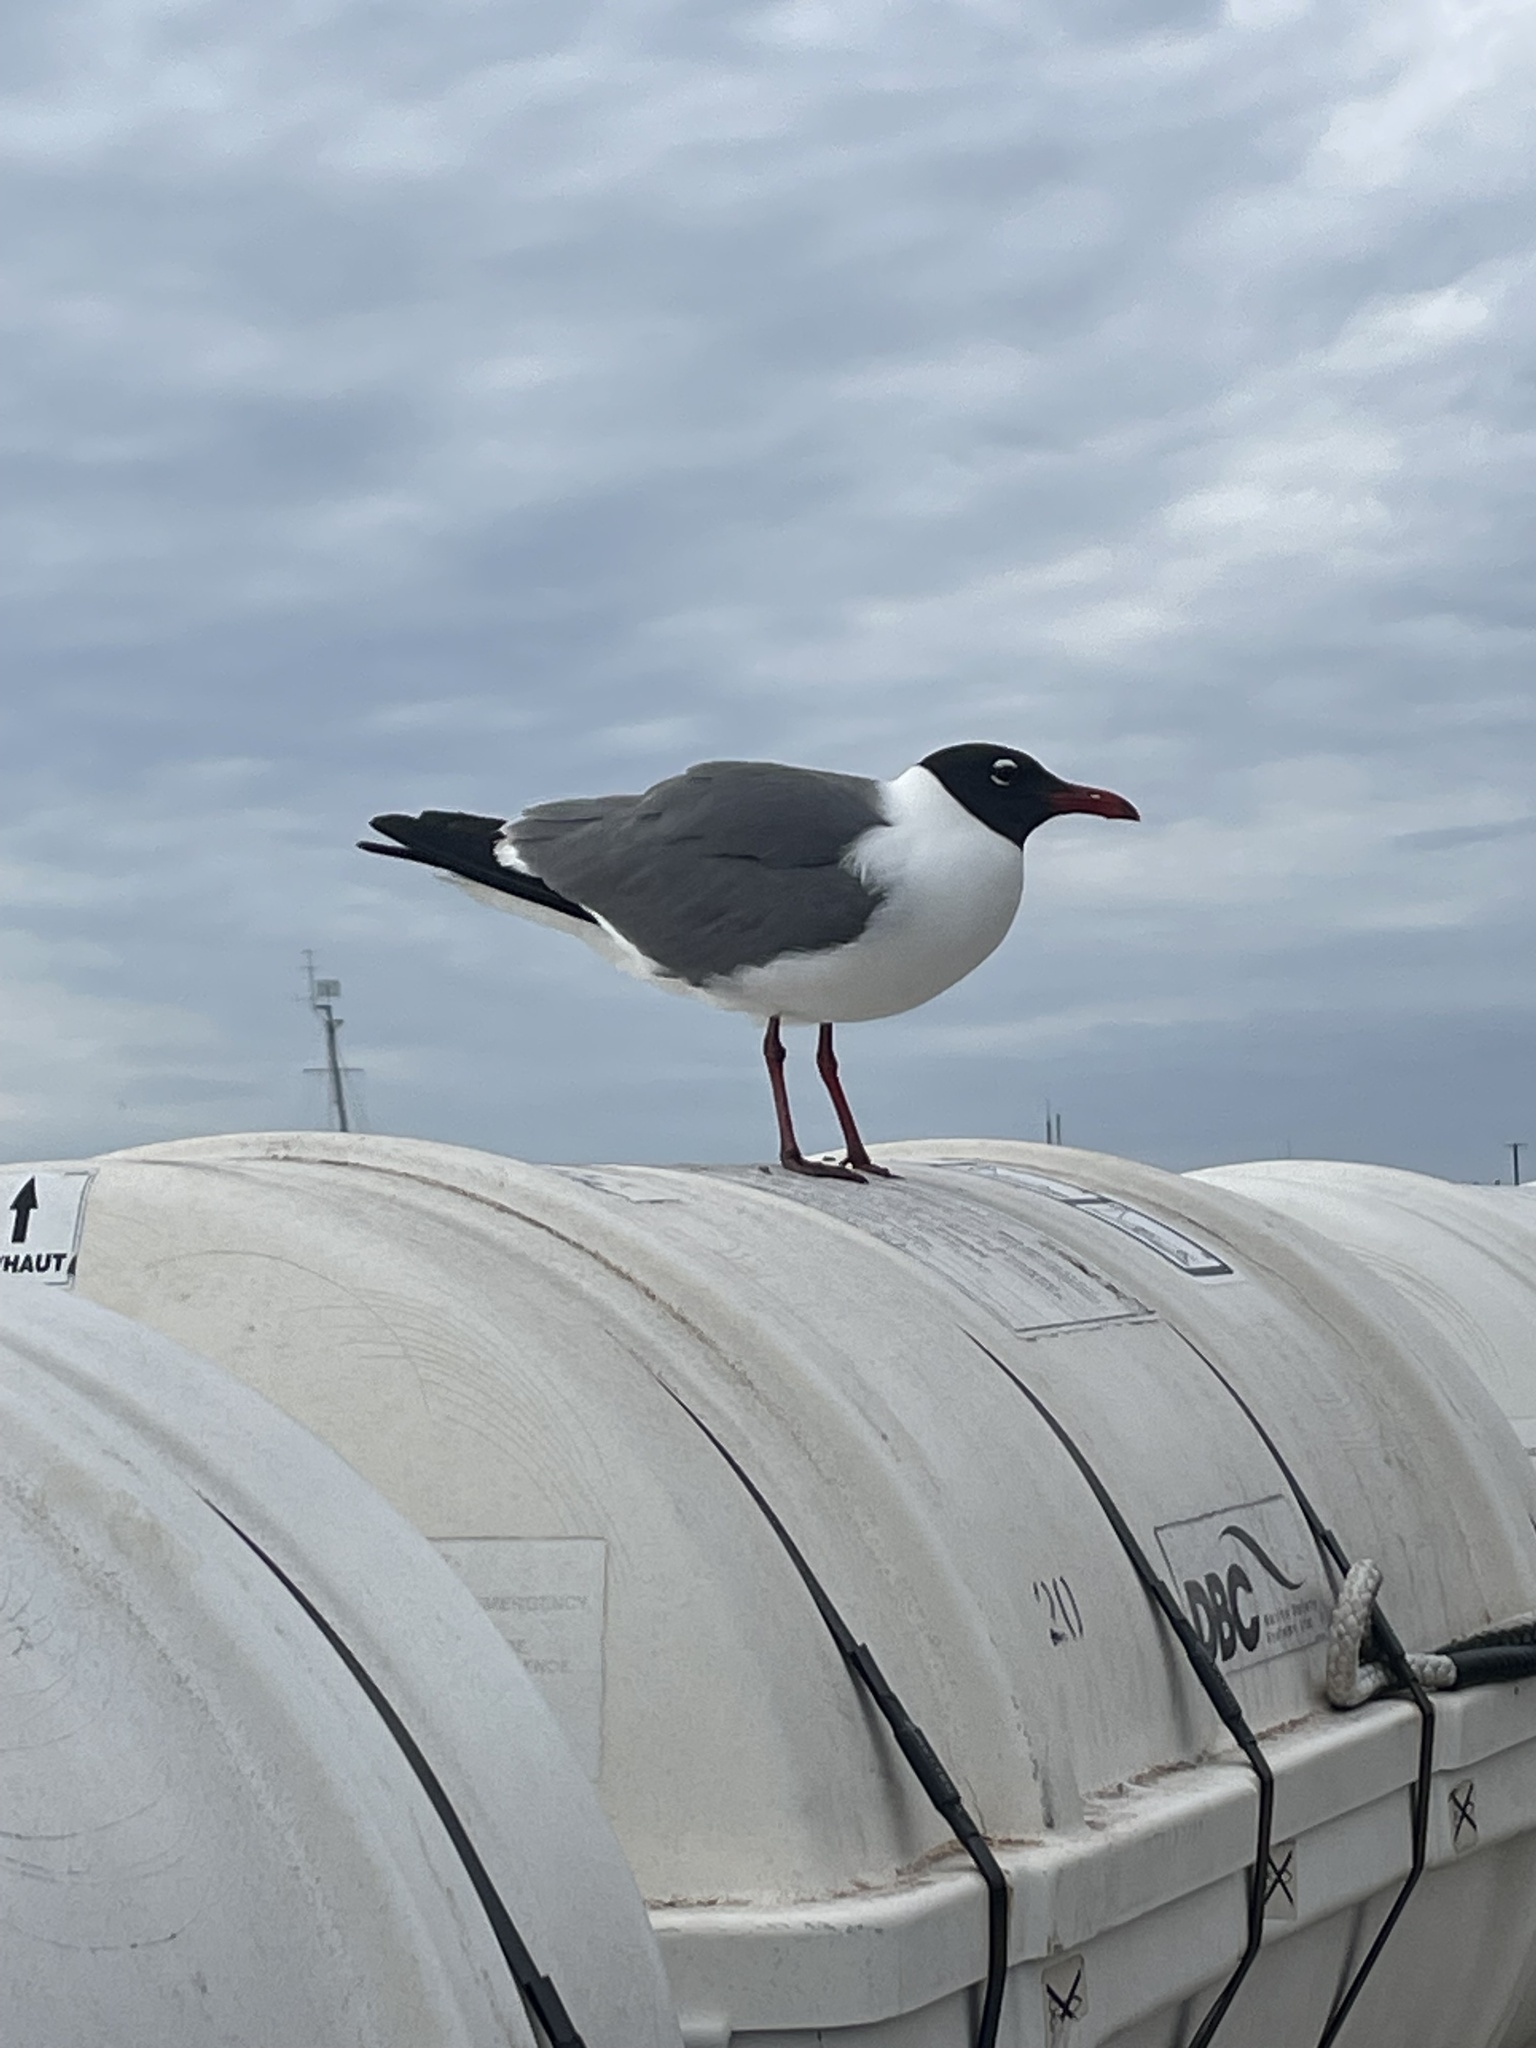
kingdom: Animalia
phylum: Chordata
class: Aves
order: Charadriiformes
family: Laridae
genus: Leucophaeus
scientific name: Leucophaeus atricilla
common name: Laughing gull
